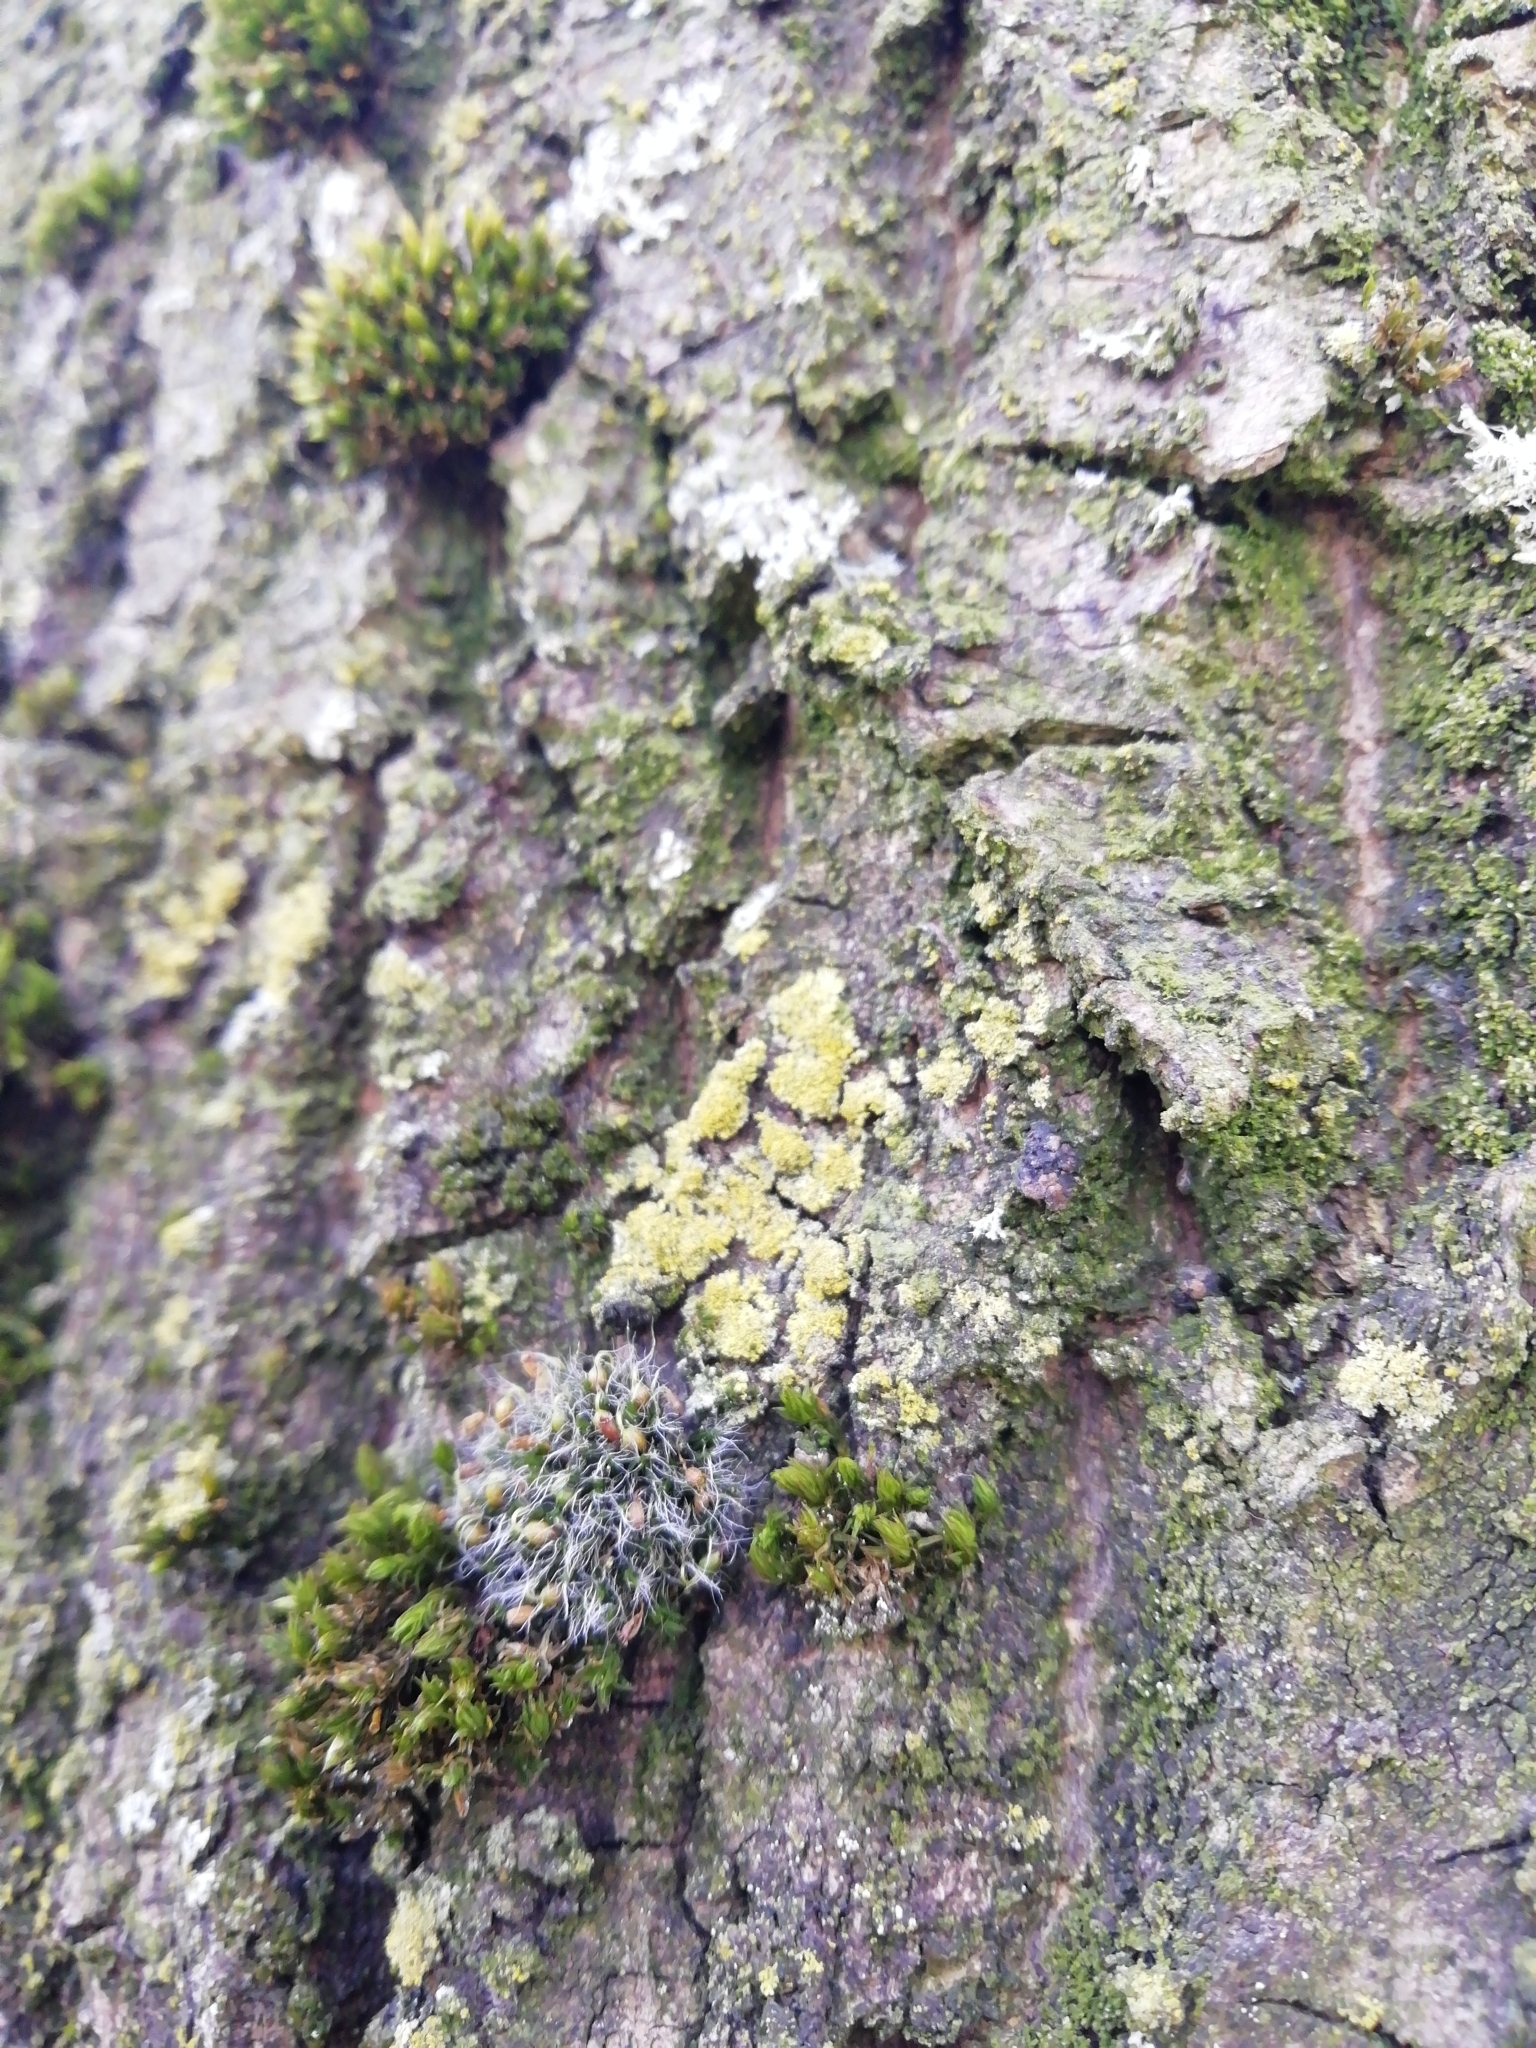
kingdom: Plantae
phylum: Bryophyta
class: Bryopsida
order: Grimmiales
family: Grimmiaceae
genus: Grimmia
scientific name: Grimmia pulvinata
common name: Grey-cushioned grimmia
